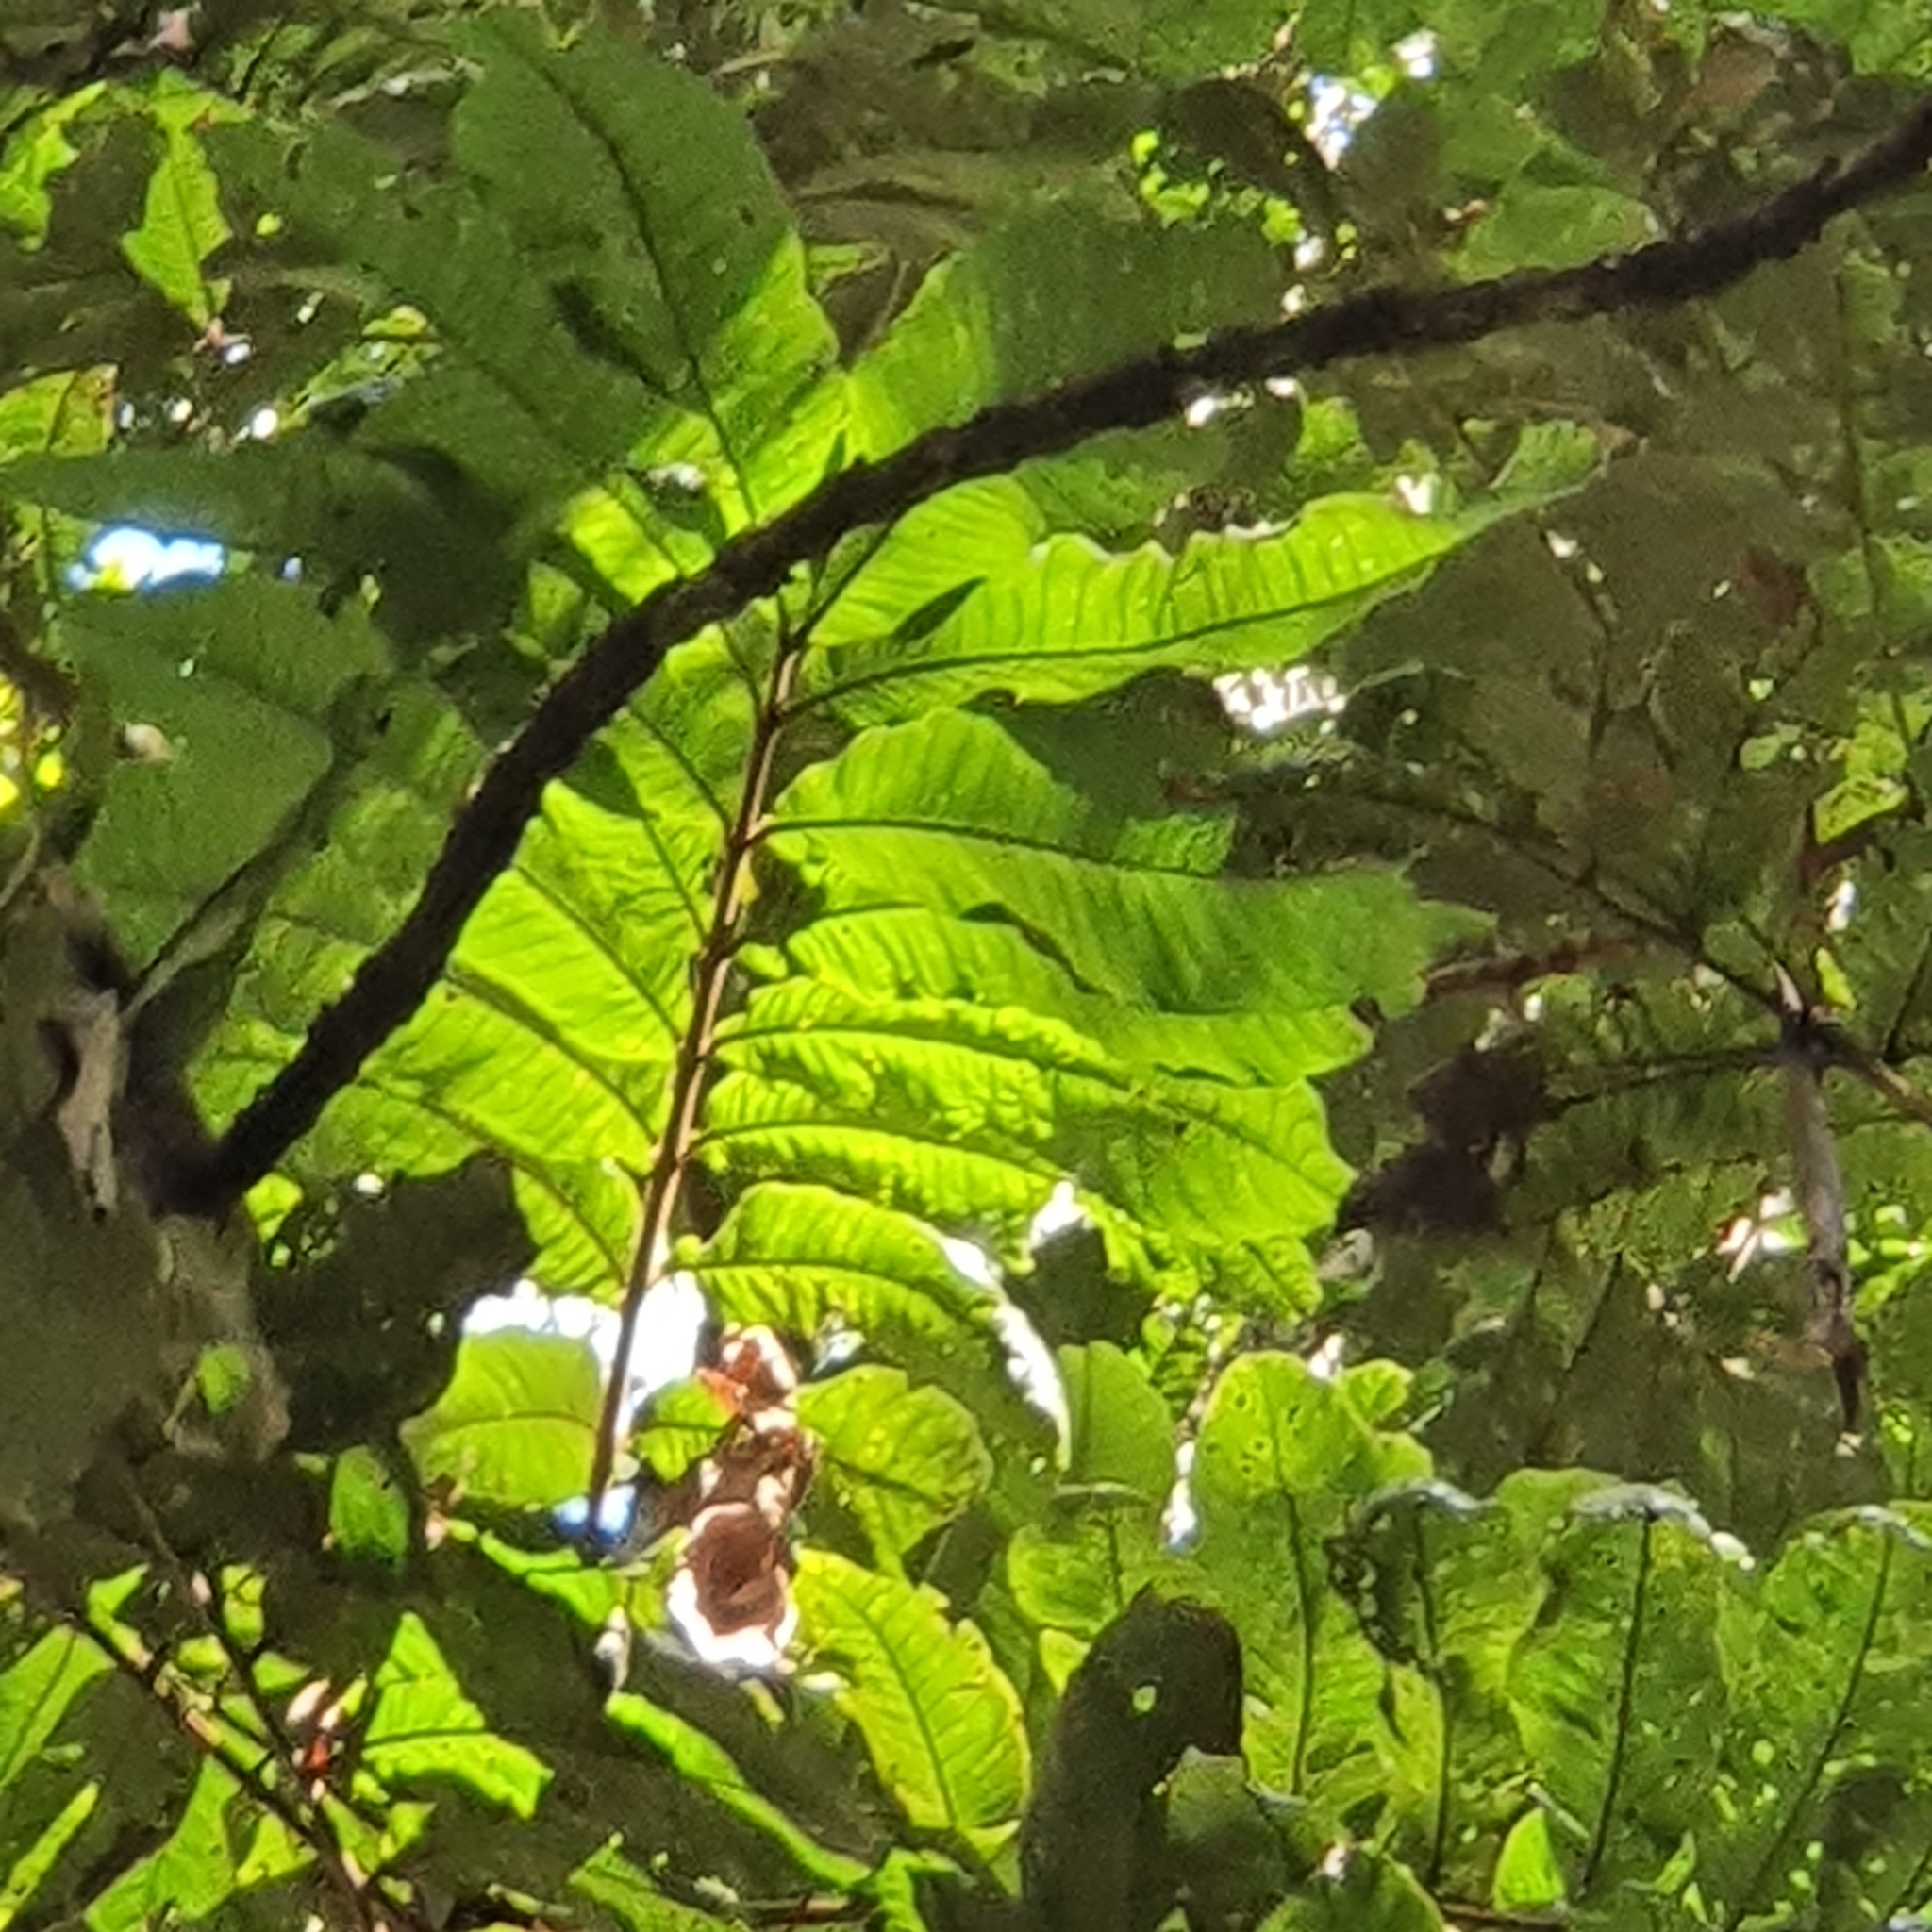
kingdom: Plantae
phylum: Tracheophyta
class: Magnoliopsida
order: Sapindales
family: Sapindaceae
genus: Diploglottis
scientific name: Diploglottis australis
